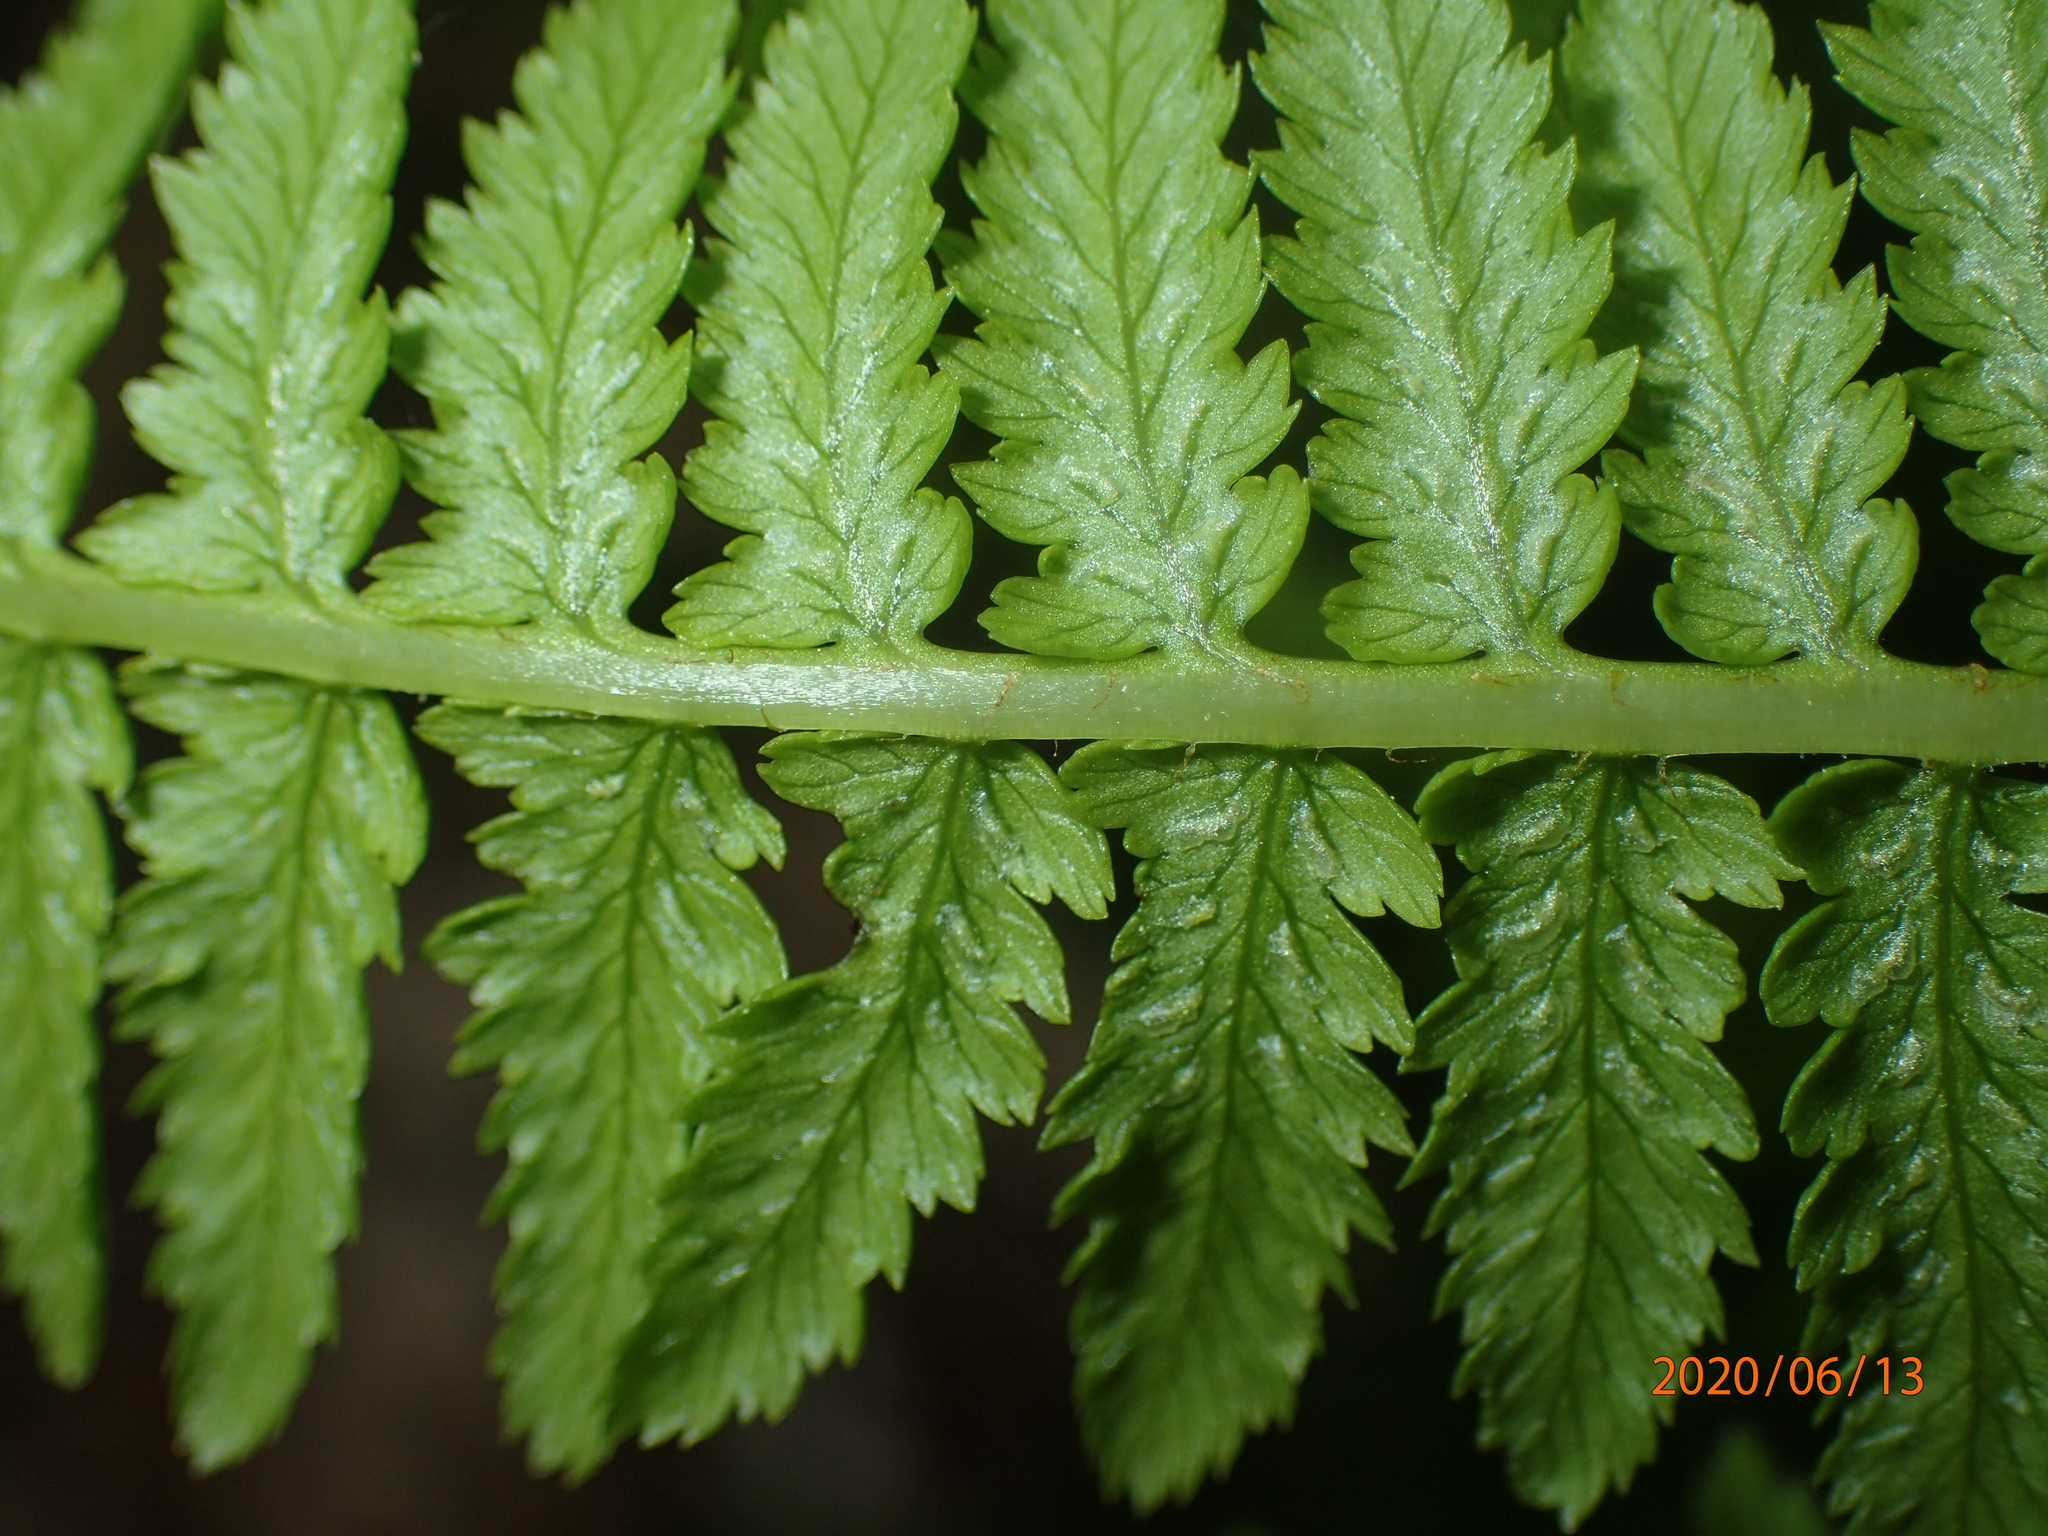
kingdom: Plantae
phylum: Tracheophyta
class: Polypodiopsida
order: Polypodiales
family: Athyriaceae
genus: Athyrium
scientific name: Athyrium angustum
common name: Northern lady fern
